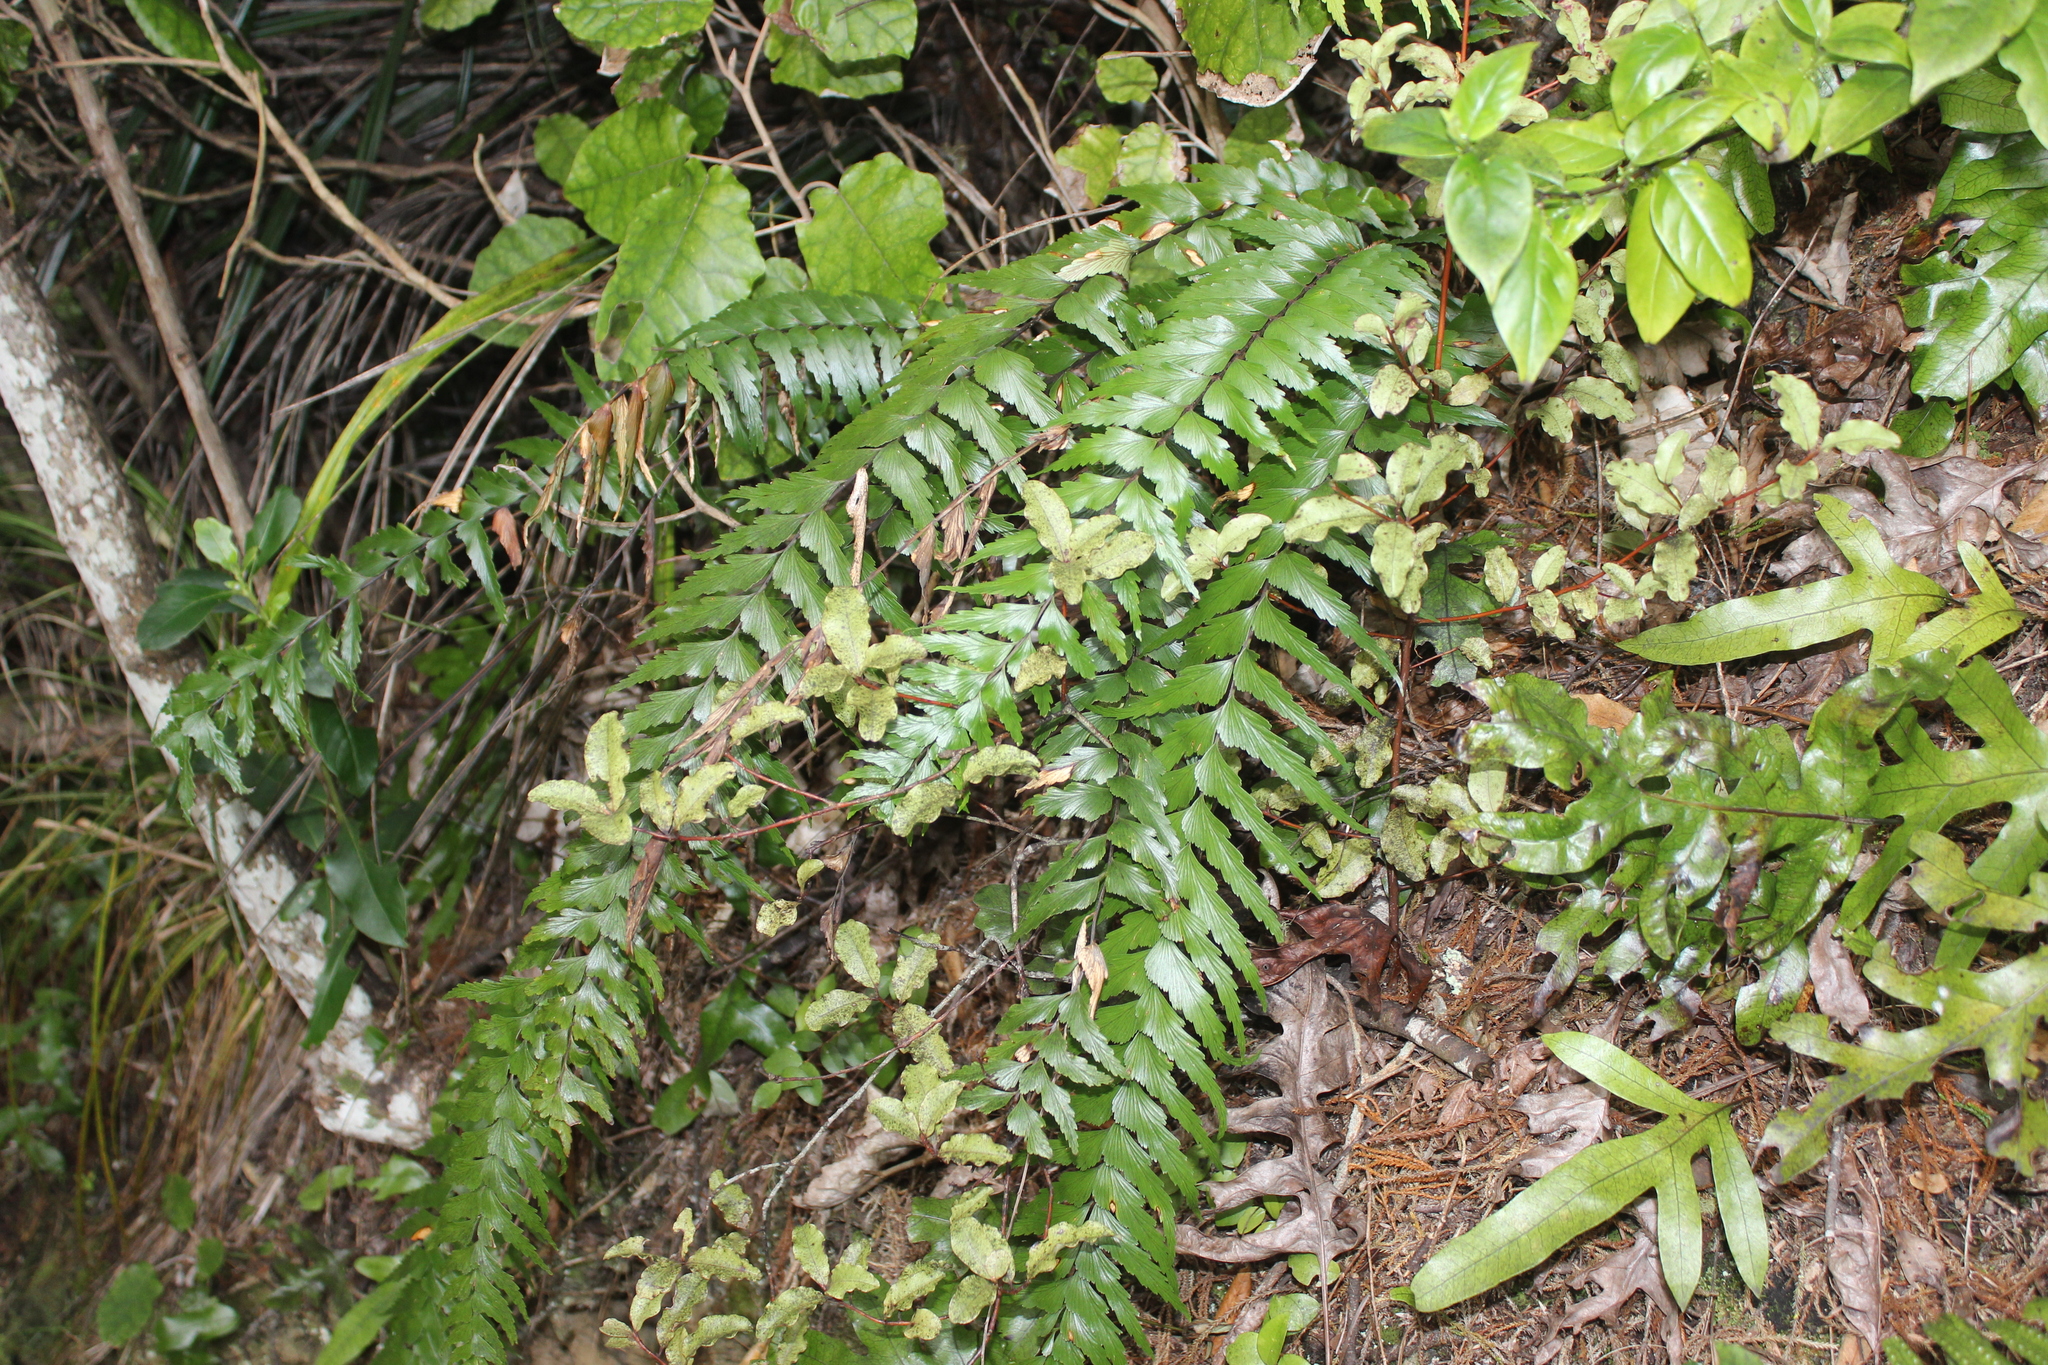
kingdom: Plantae
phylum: Tracheophyta
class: Polypodiopsida
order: Polypodiales
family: Aspleniaceae
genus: Asplenium
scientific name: Asplenium polyodon
